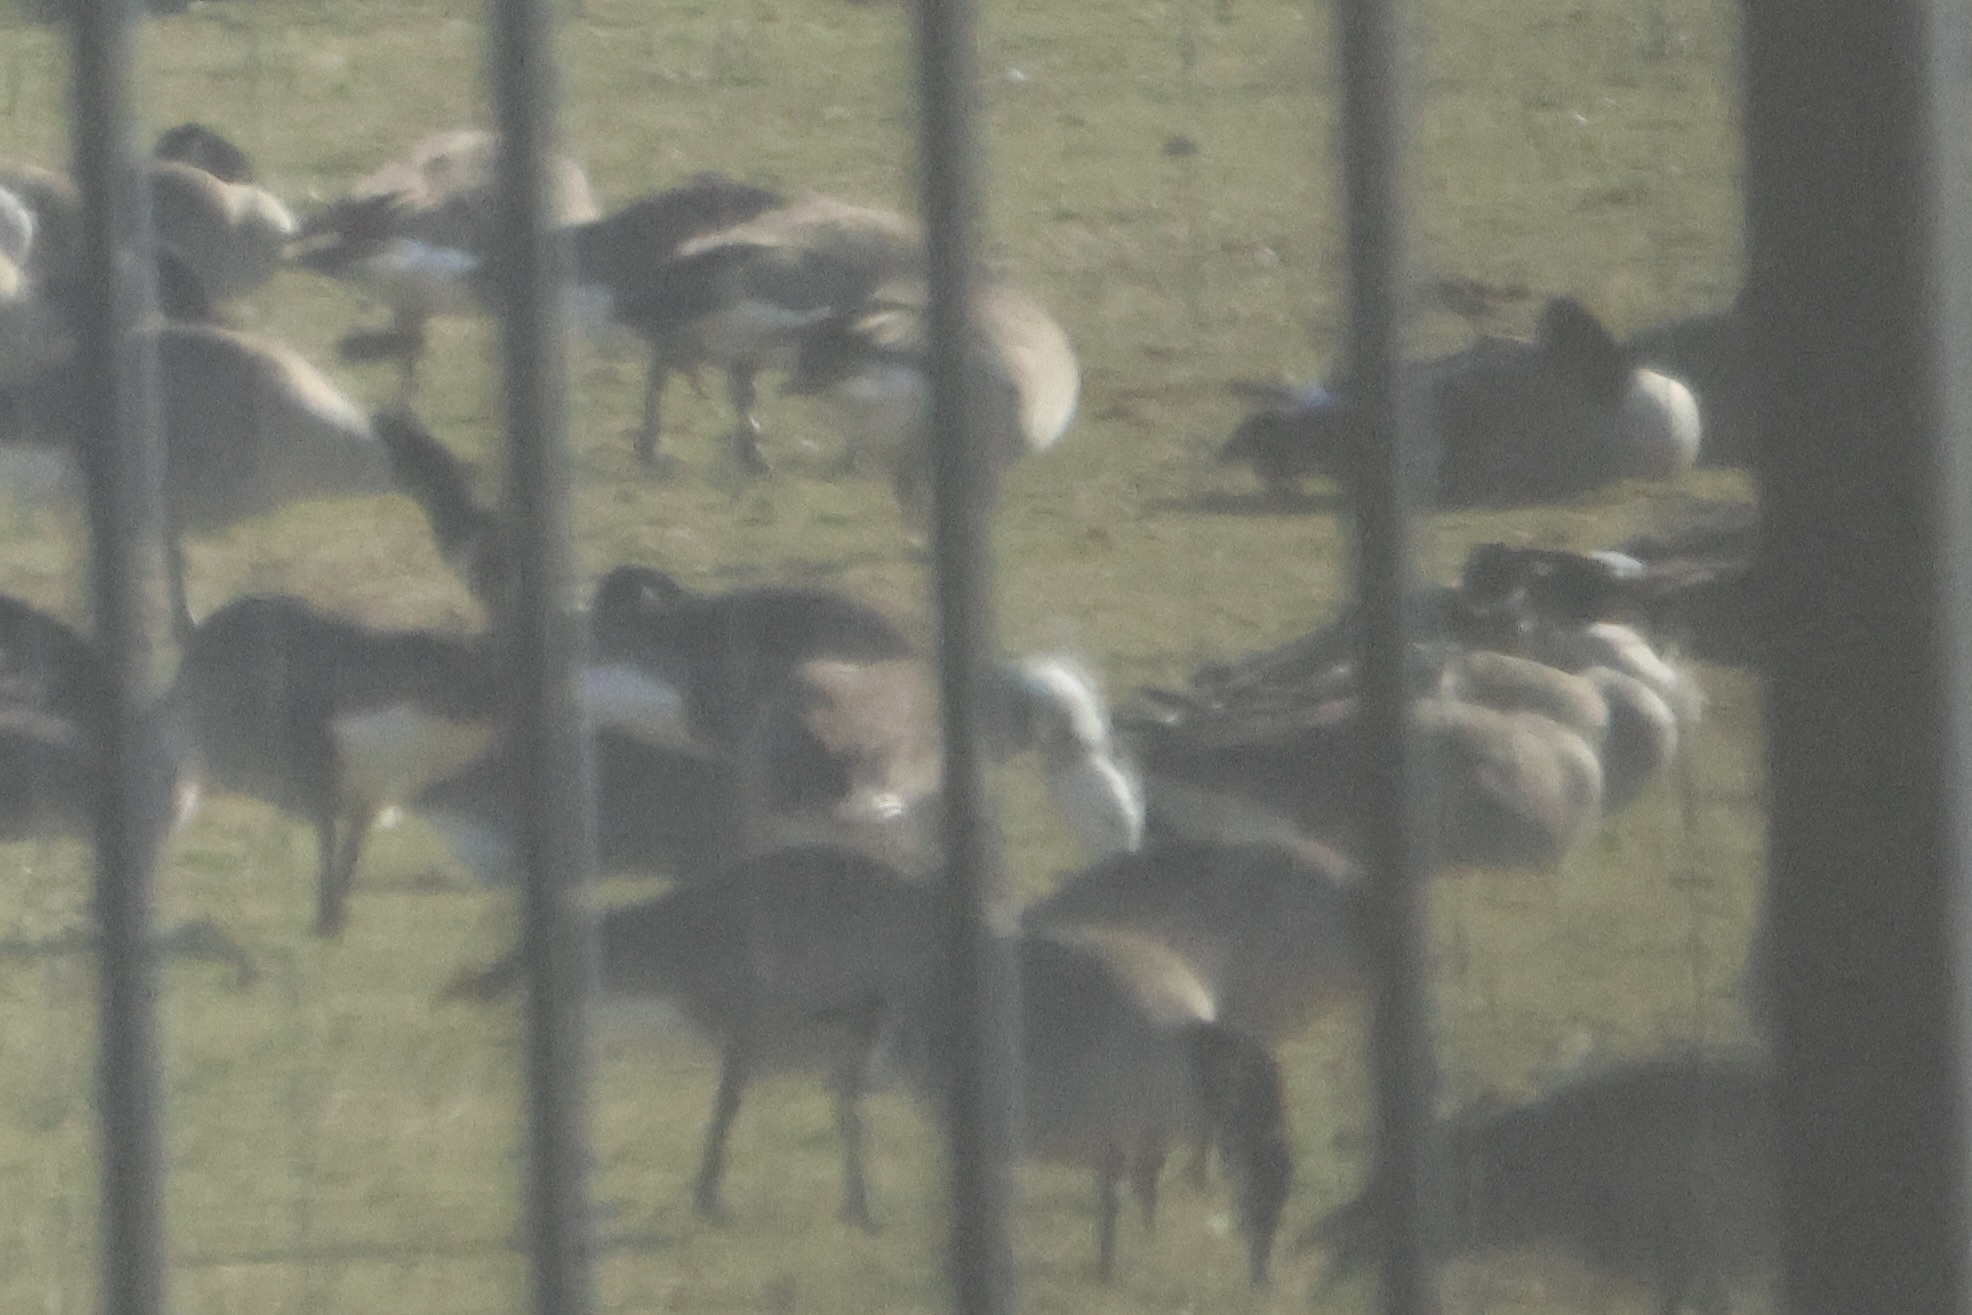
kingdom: Animalia
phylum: Chordata
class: Aves
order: Anseriformes
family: Anatidae
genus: Anser
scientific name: Anser caerulescens
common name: Snow goose
